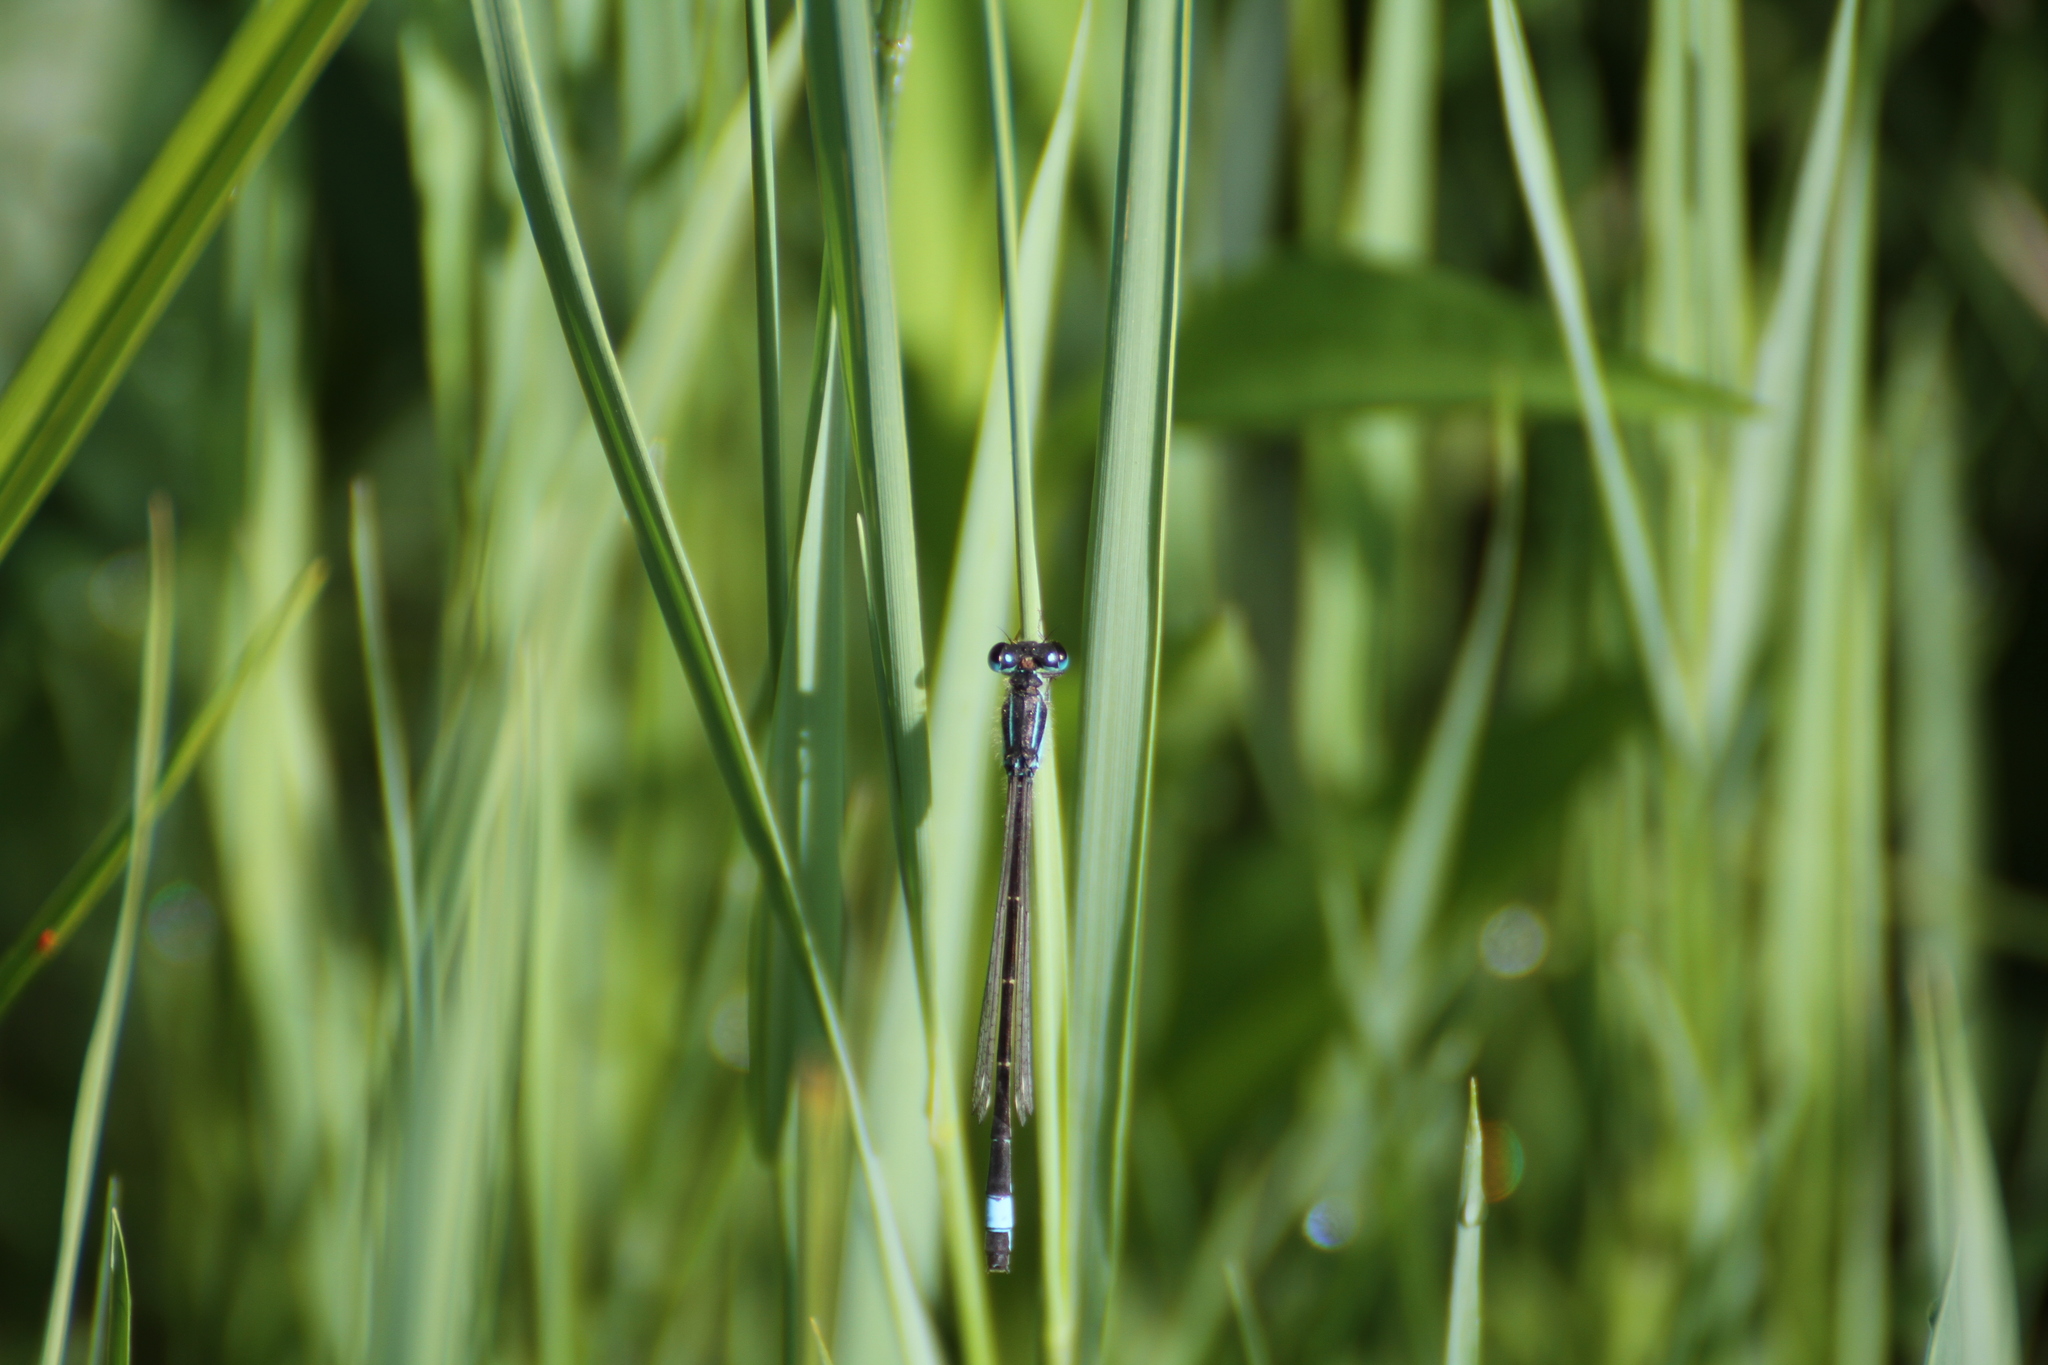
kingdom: Animalia
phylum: Arthropoda
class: Insecta
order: Odonata
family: Coenagrionidae
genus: Ischnura
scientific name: Ischnura elegans
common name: Blue-tailed damselfly
